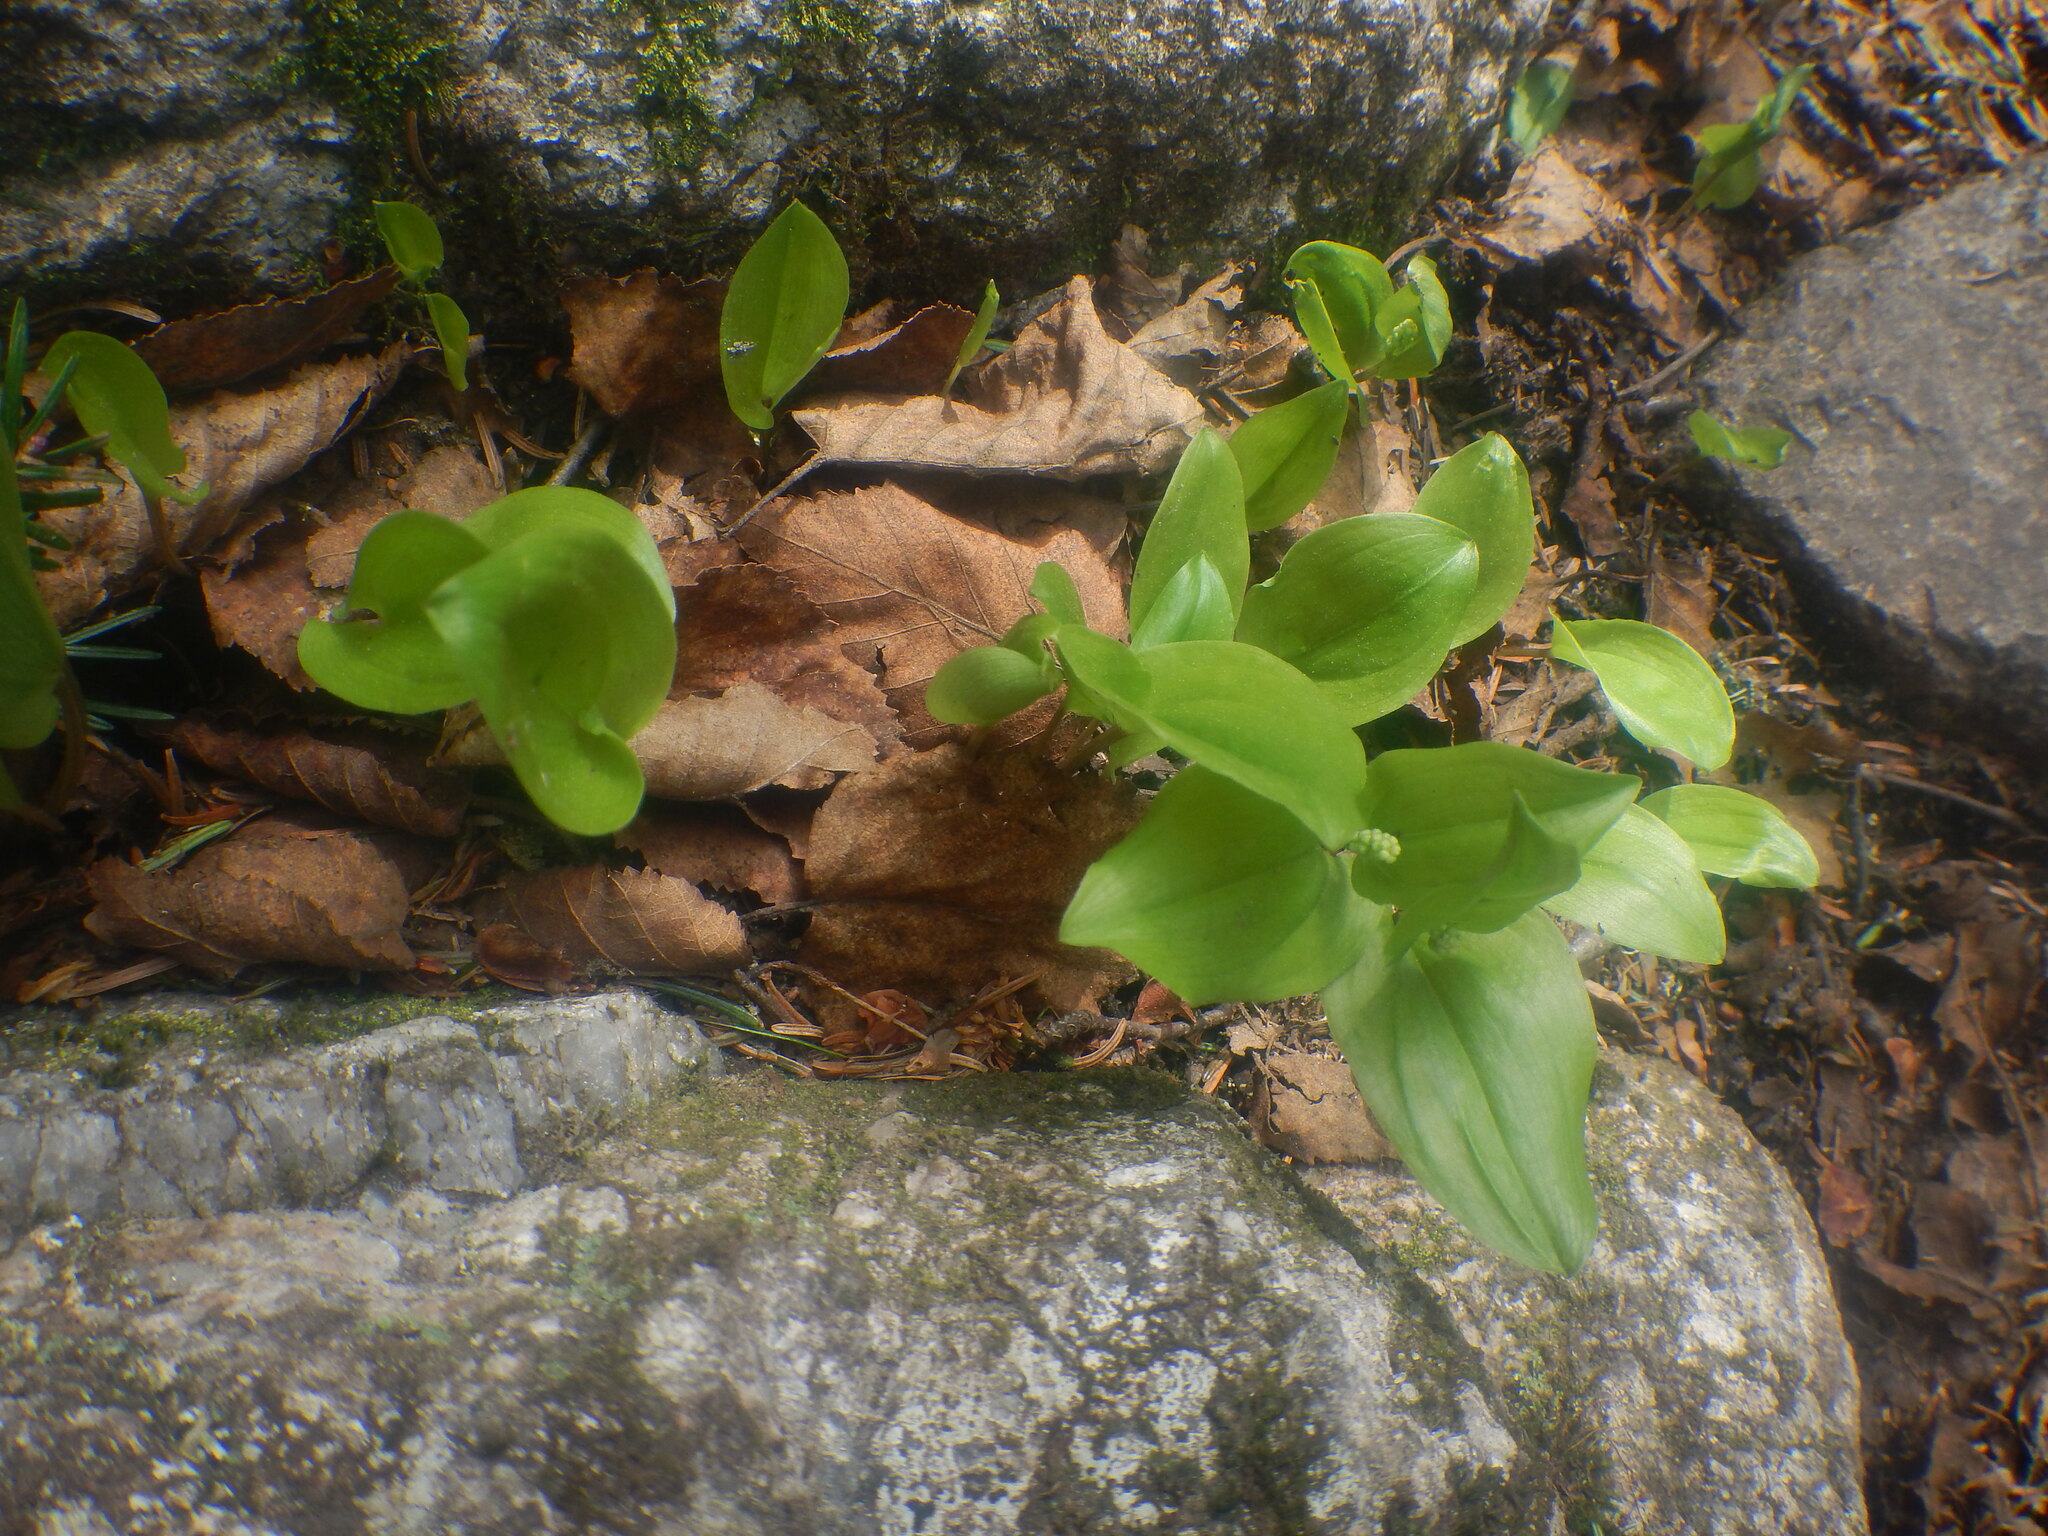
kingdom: Plantae
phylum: Tracheophyta
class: Liliopsida
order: Asparagales
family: Asparagaceae
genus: Maianthemum
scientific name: Maianthemum canadense
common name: False lily-of-the-valley
